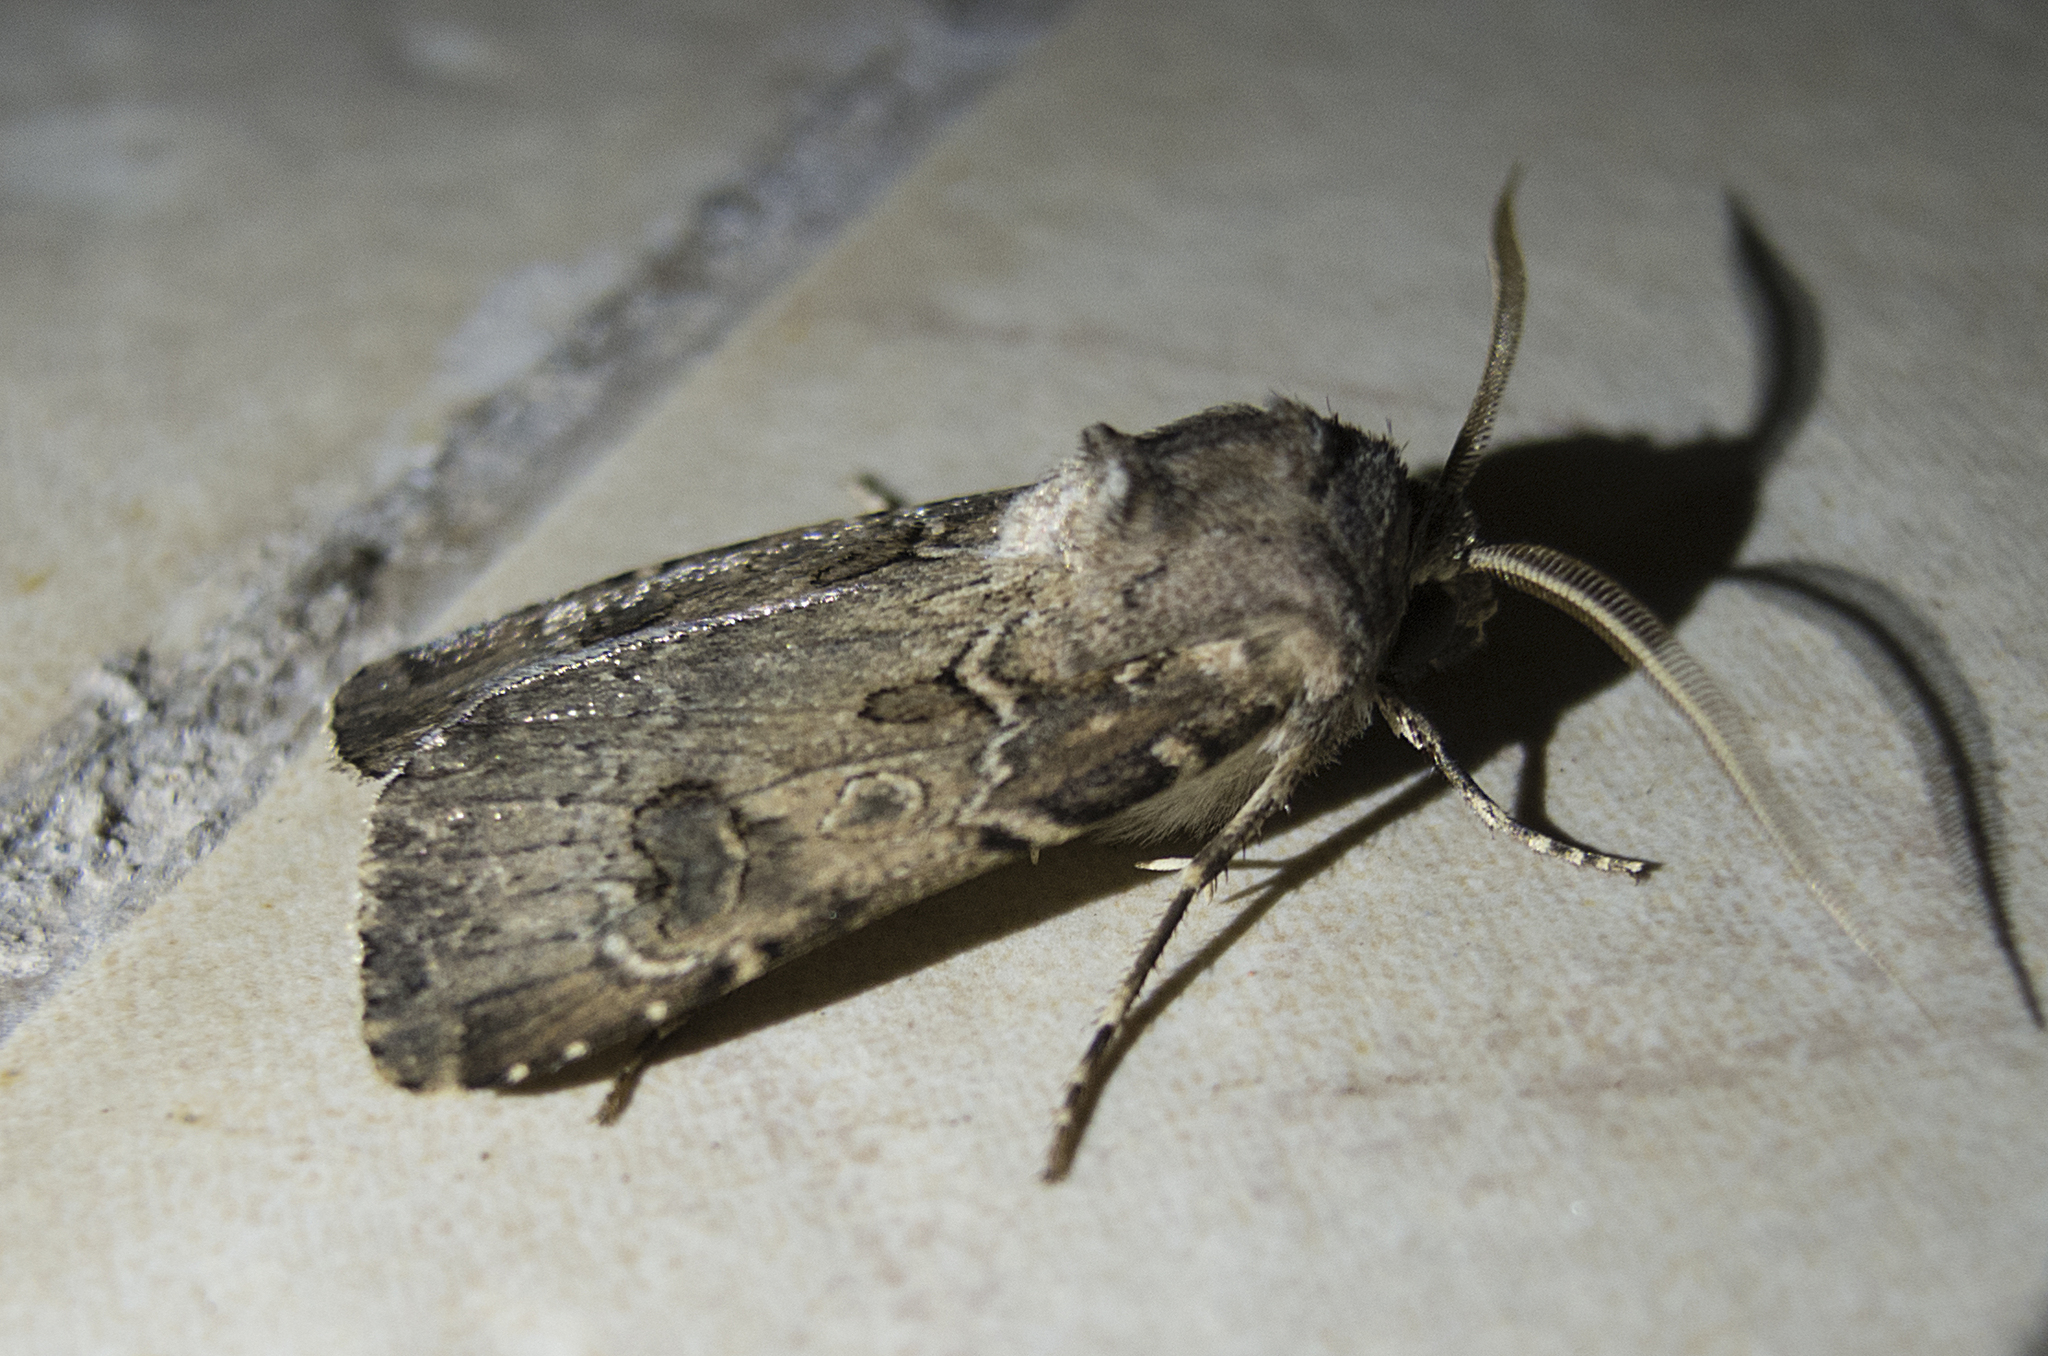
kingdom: Animalia
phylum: Arthropoda
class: Insecta
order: Lepidoptera
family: Noctuidae
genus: Agrotis
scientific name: Agrotis bigramma
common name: Great dart
